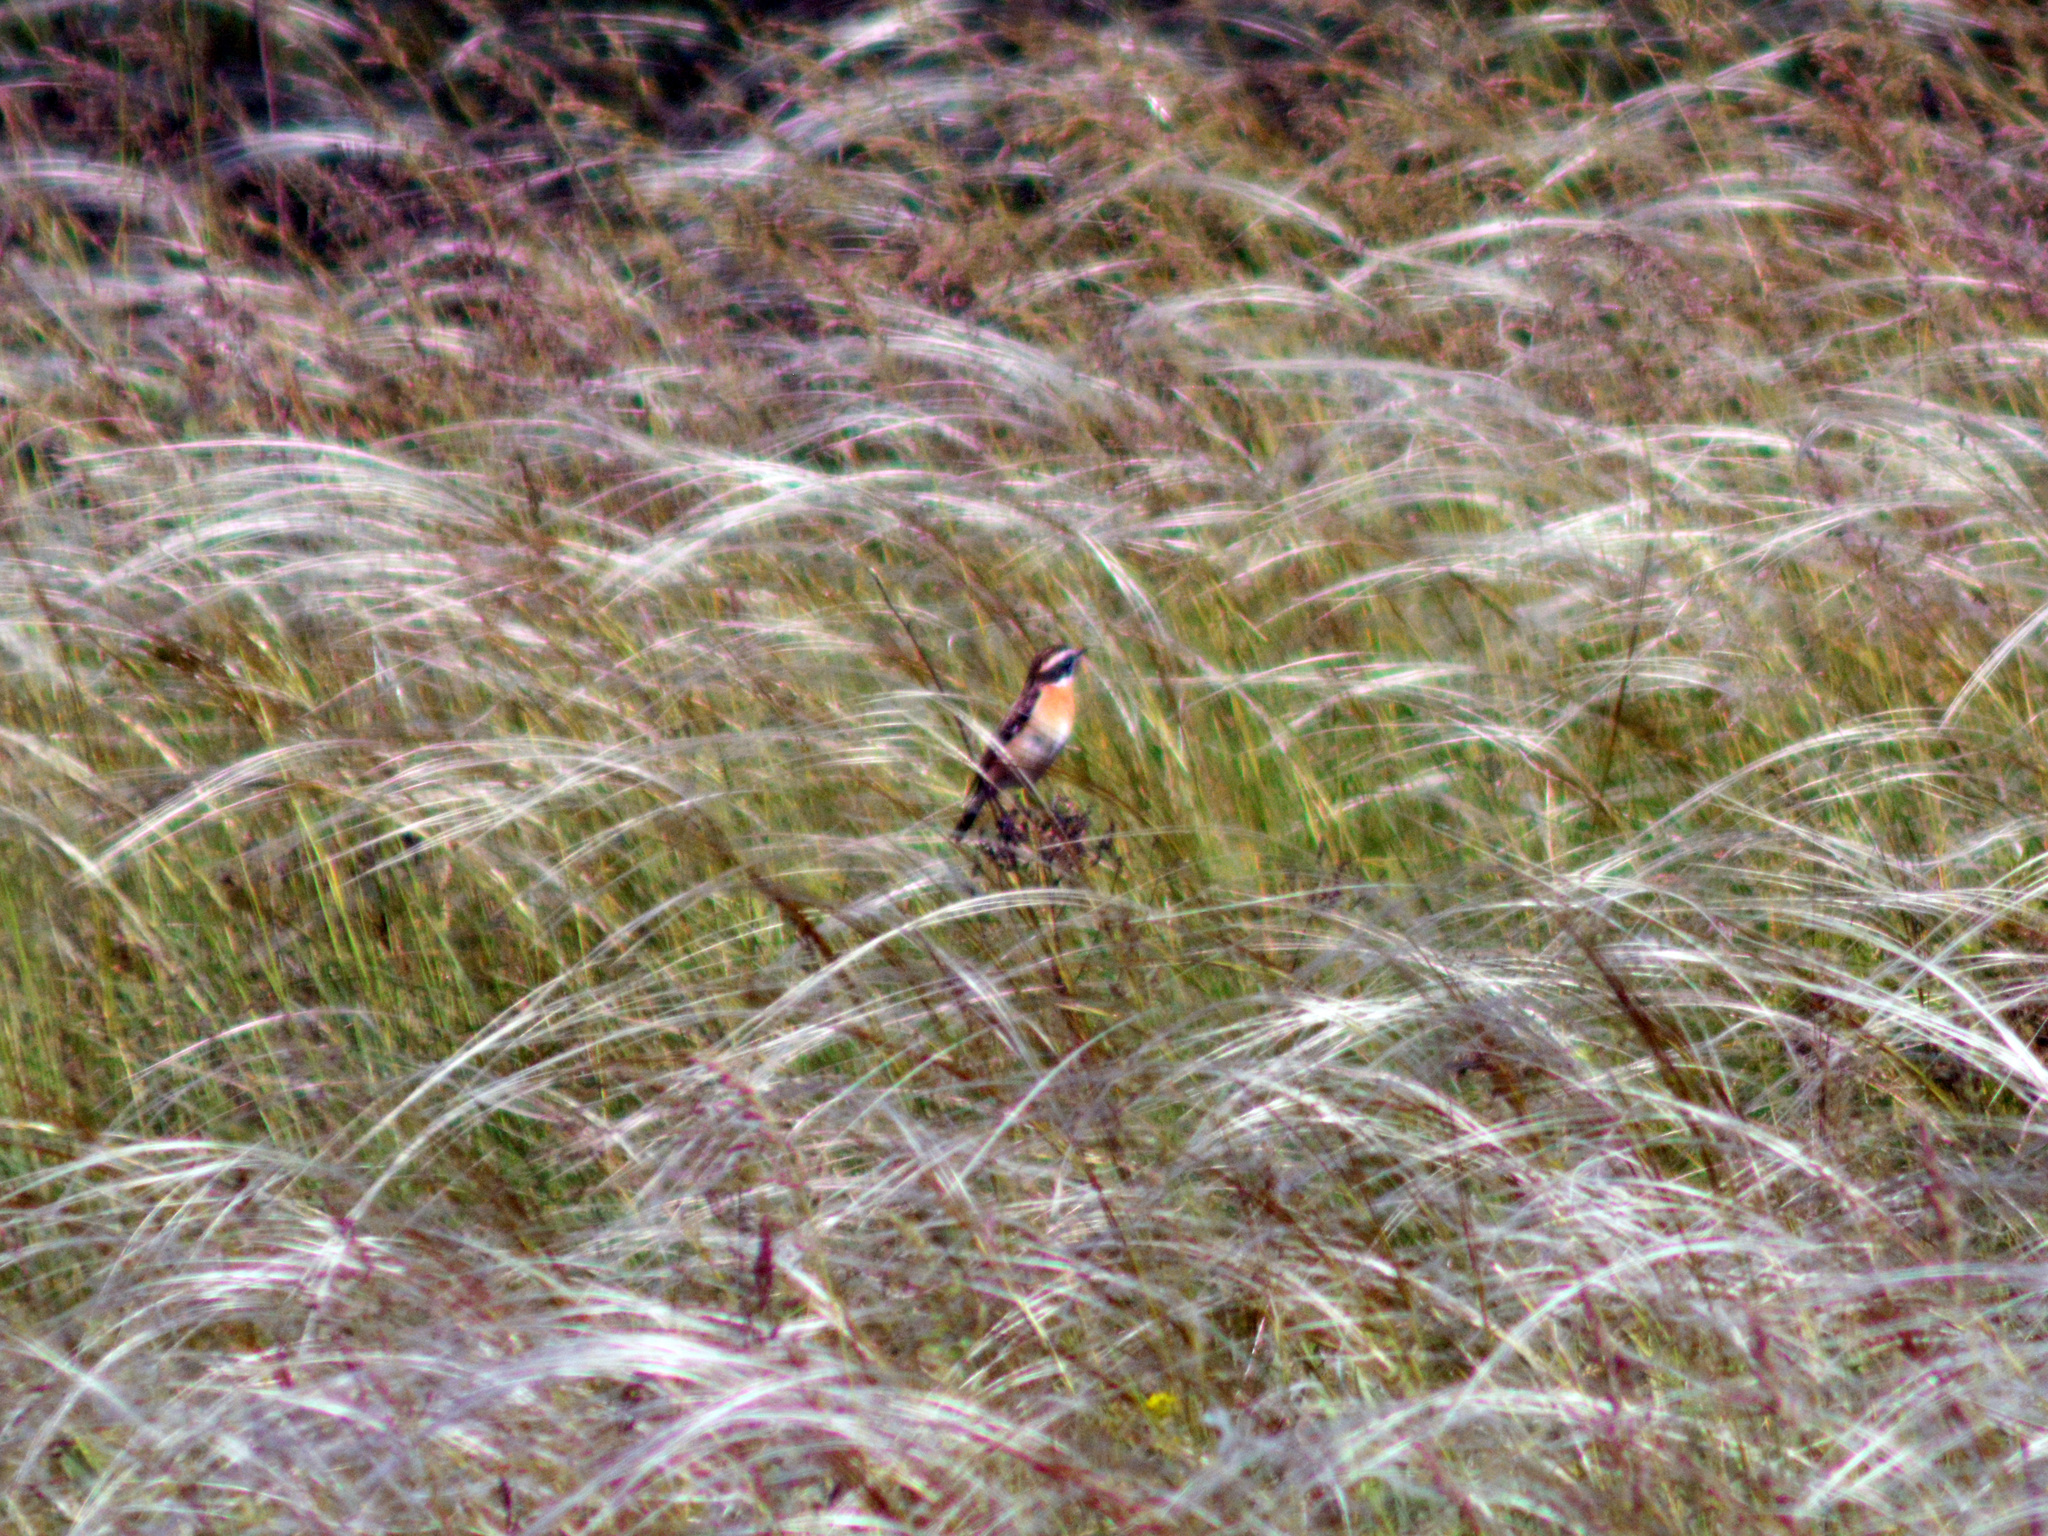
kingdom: Animalia
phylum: Chordata
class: Aves
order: Passeriformes
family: Muscicapidae
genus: Saxicola
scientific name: Saxicola rubetra
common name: Whinchat
